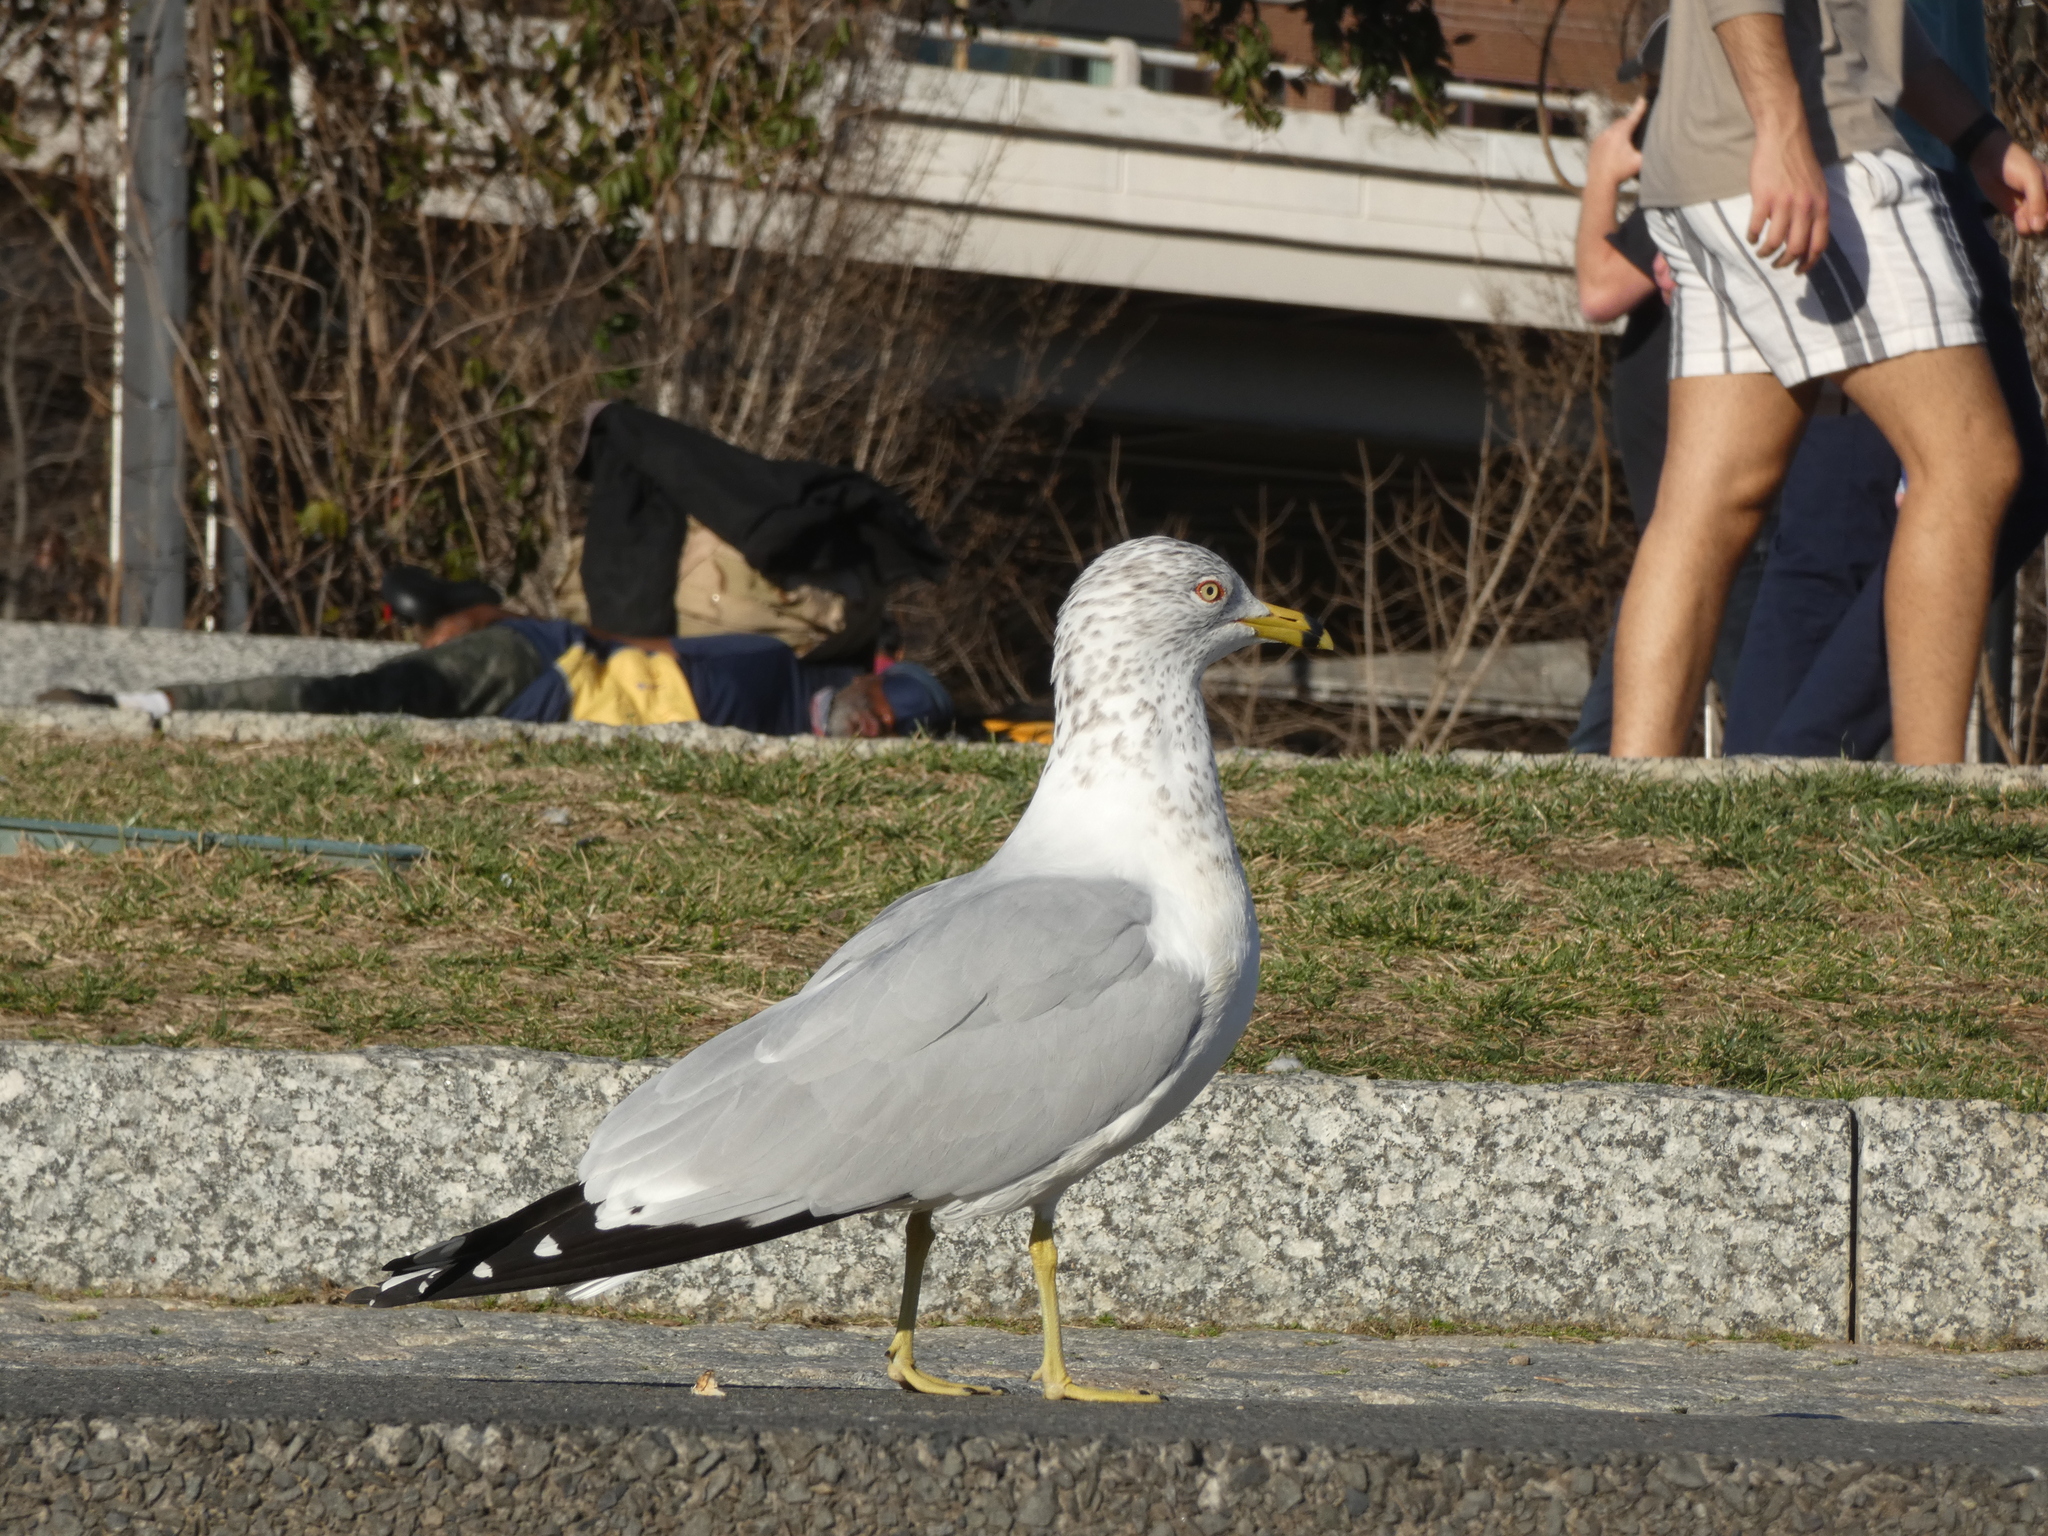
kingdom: Animalia
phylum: Chordata
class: Aves
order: Charadriiformes
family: Laridae
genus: Larus
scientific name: Larus delawarensis
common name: Ring-billed gull
